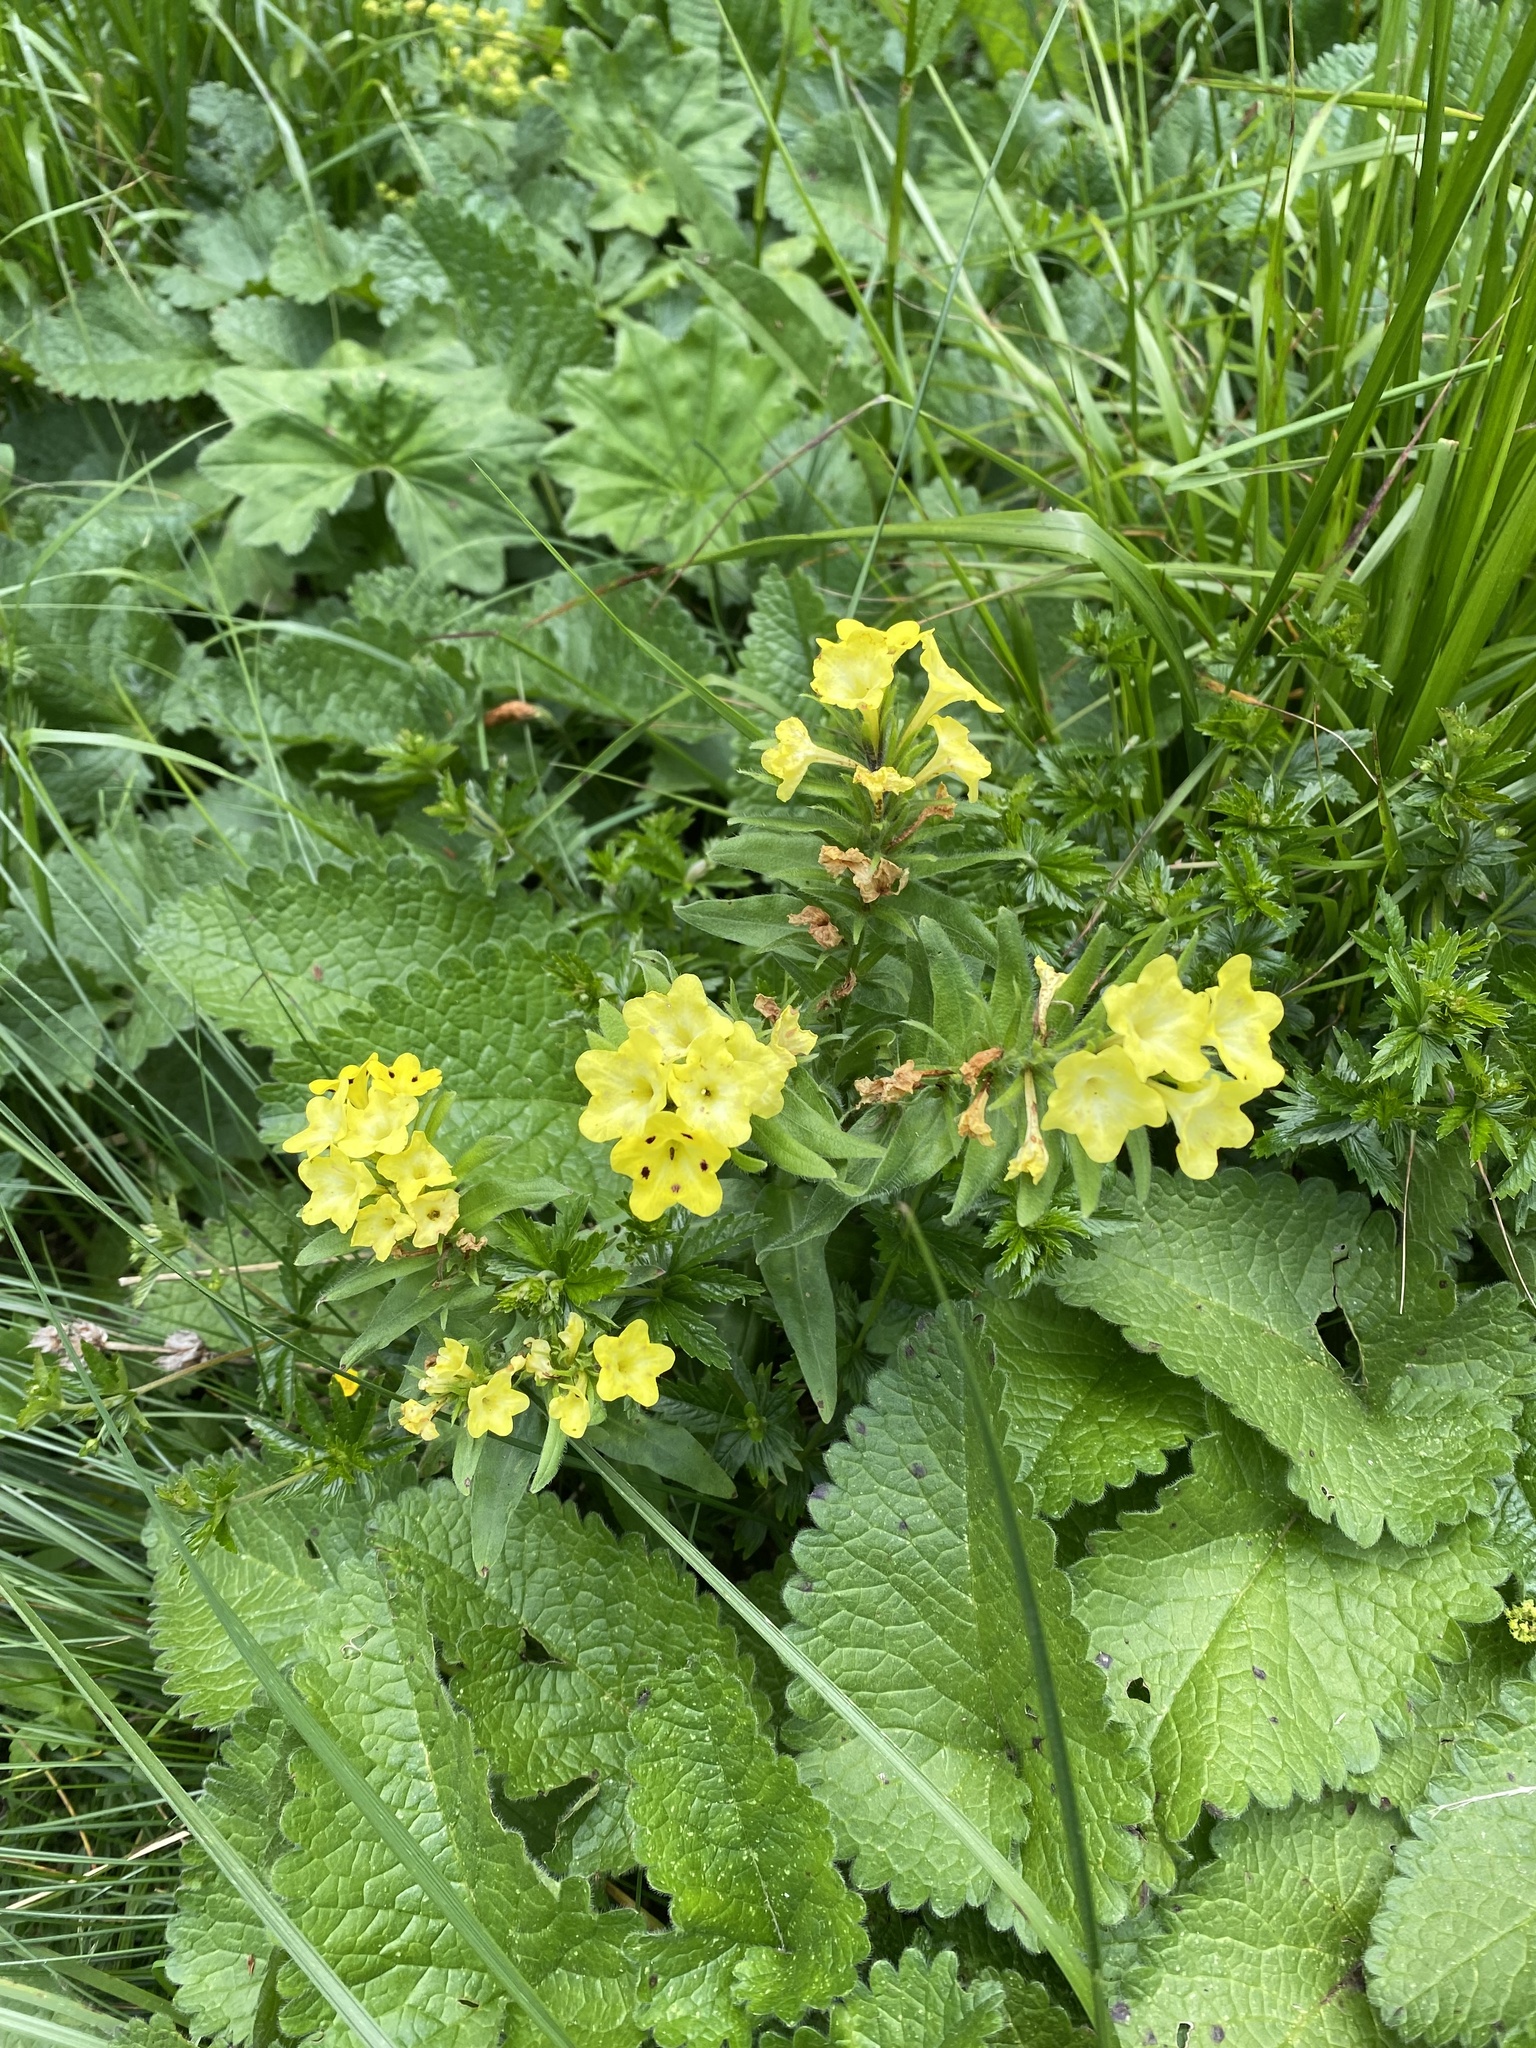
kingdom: Plantae
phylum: Tracheophyta
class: Magnoliopsida
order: Boraginales
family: Boraginaceae
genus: Huynhia
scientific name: Huynhia pulchra
